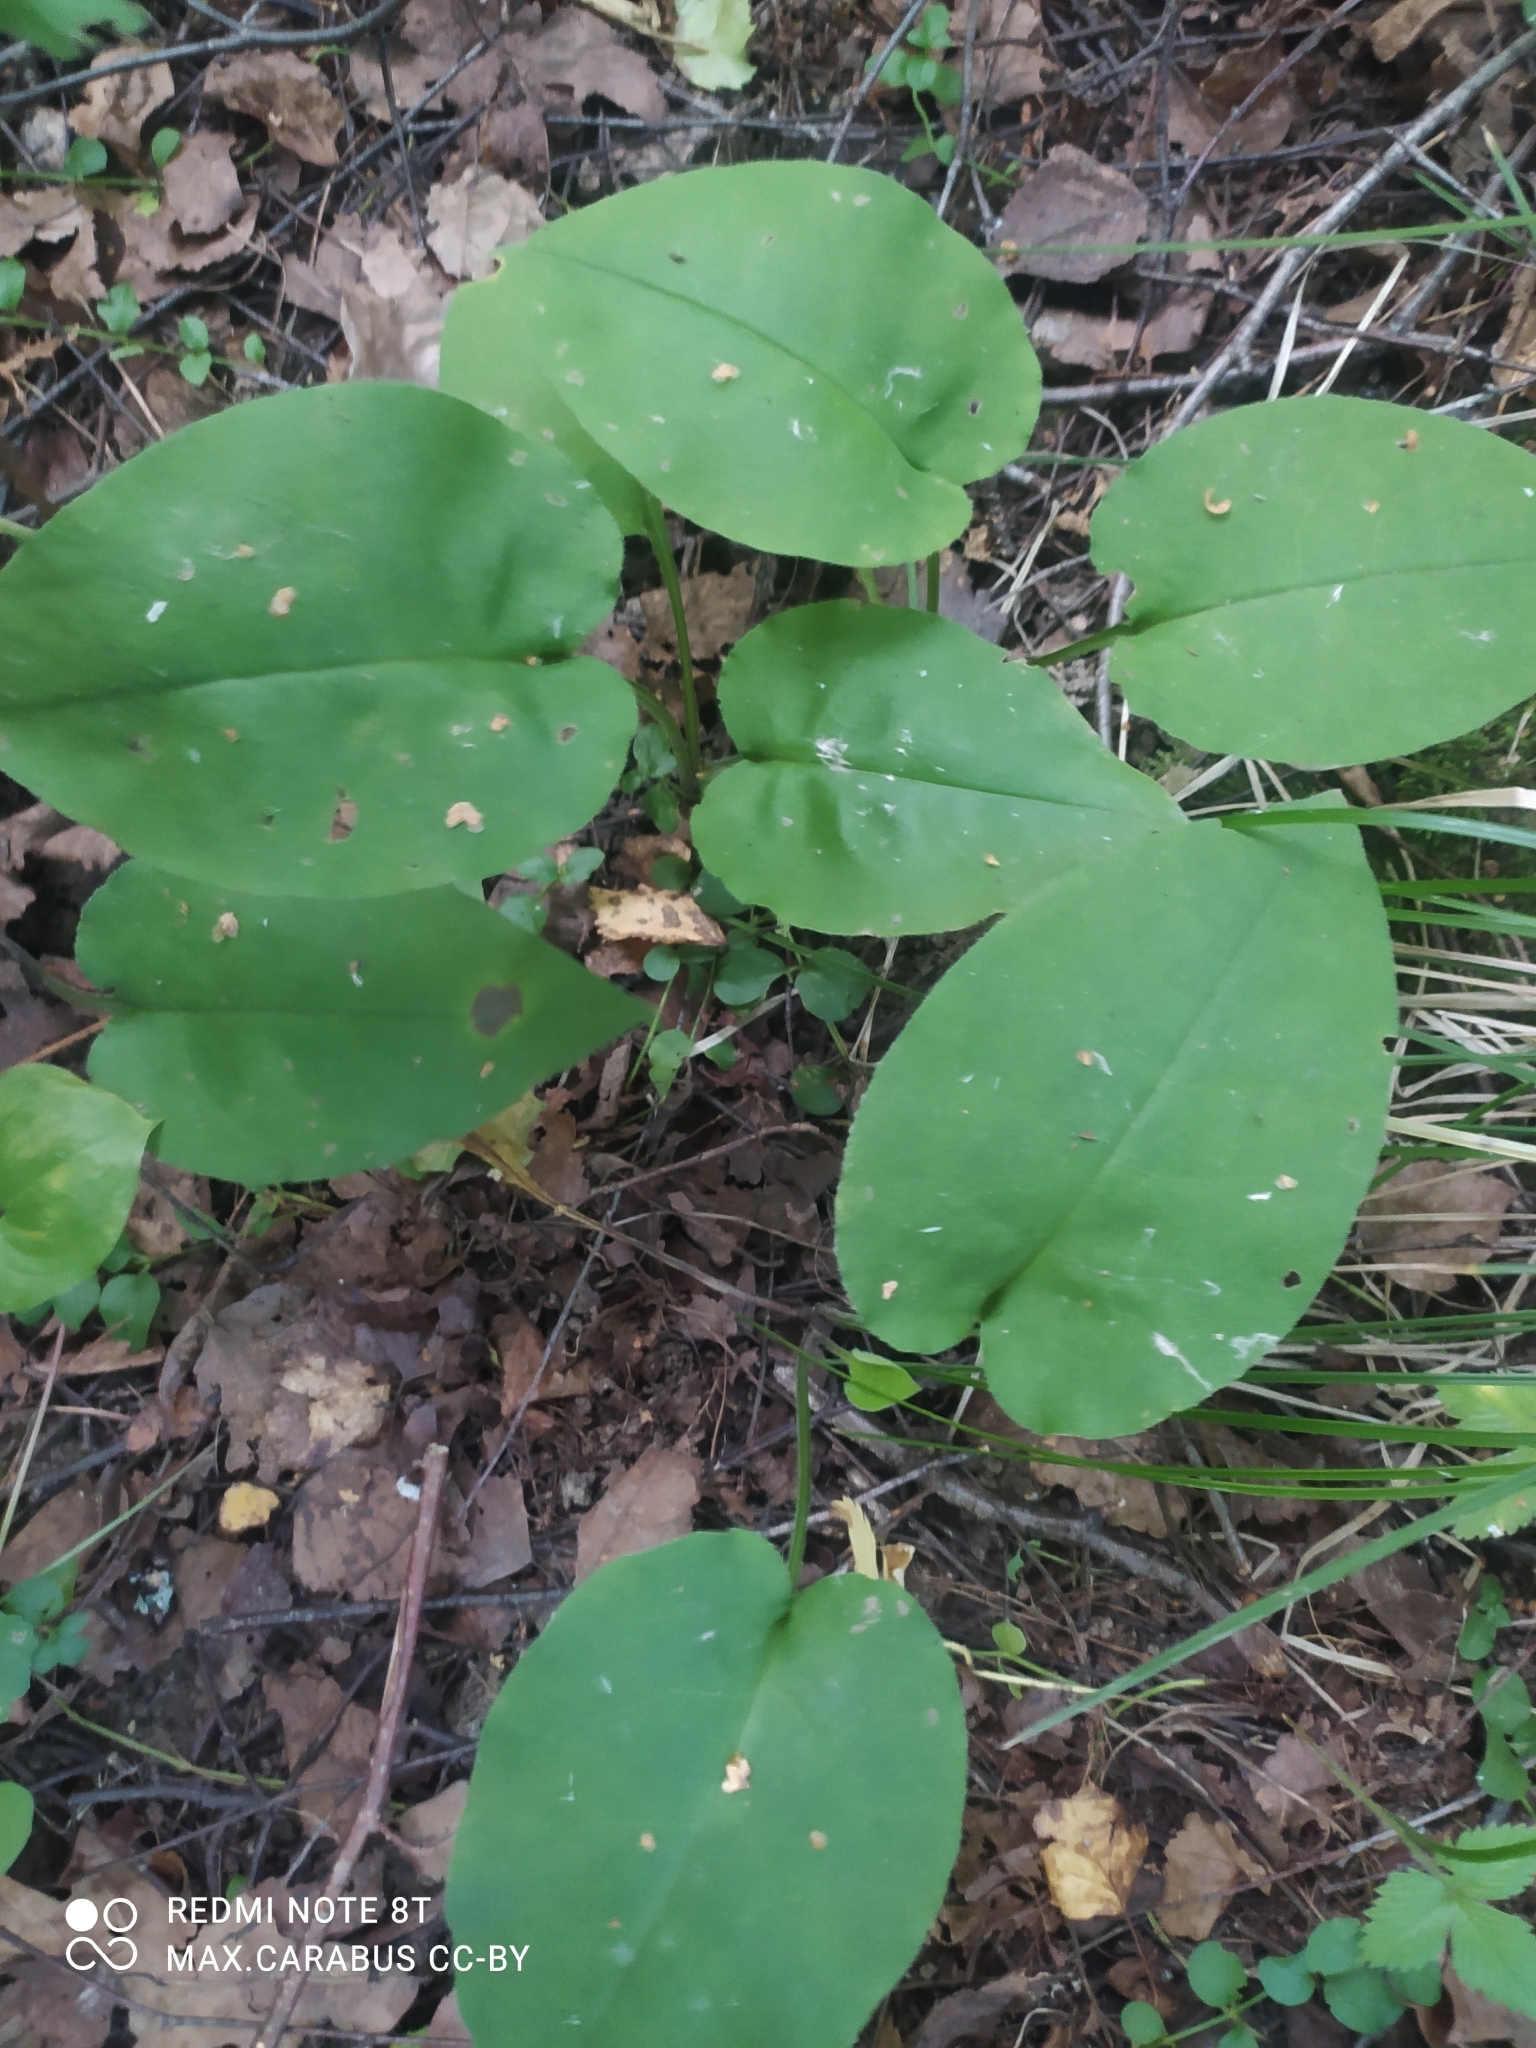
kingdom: Plantae
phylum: Tracheophyta
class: Magnoliopsida
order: Boraginales
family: Boraginaceae
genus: Pulmonaria
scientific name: Pulmonaria obscura
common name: Suffolk lungwort
